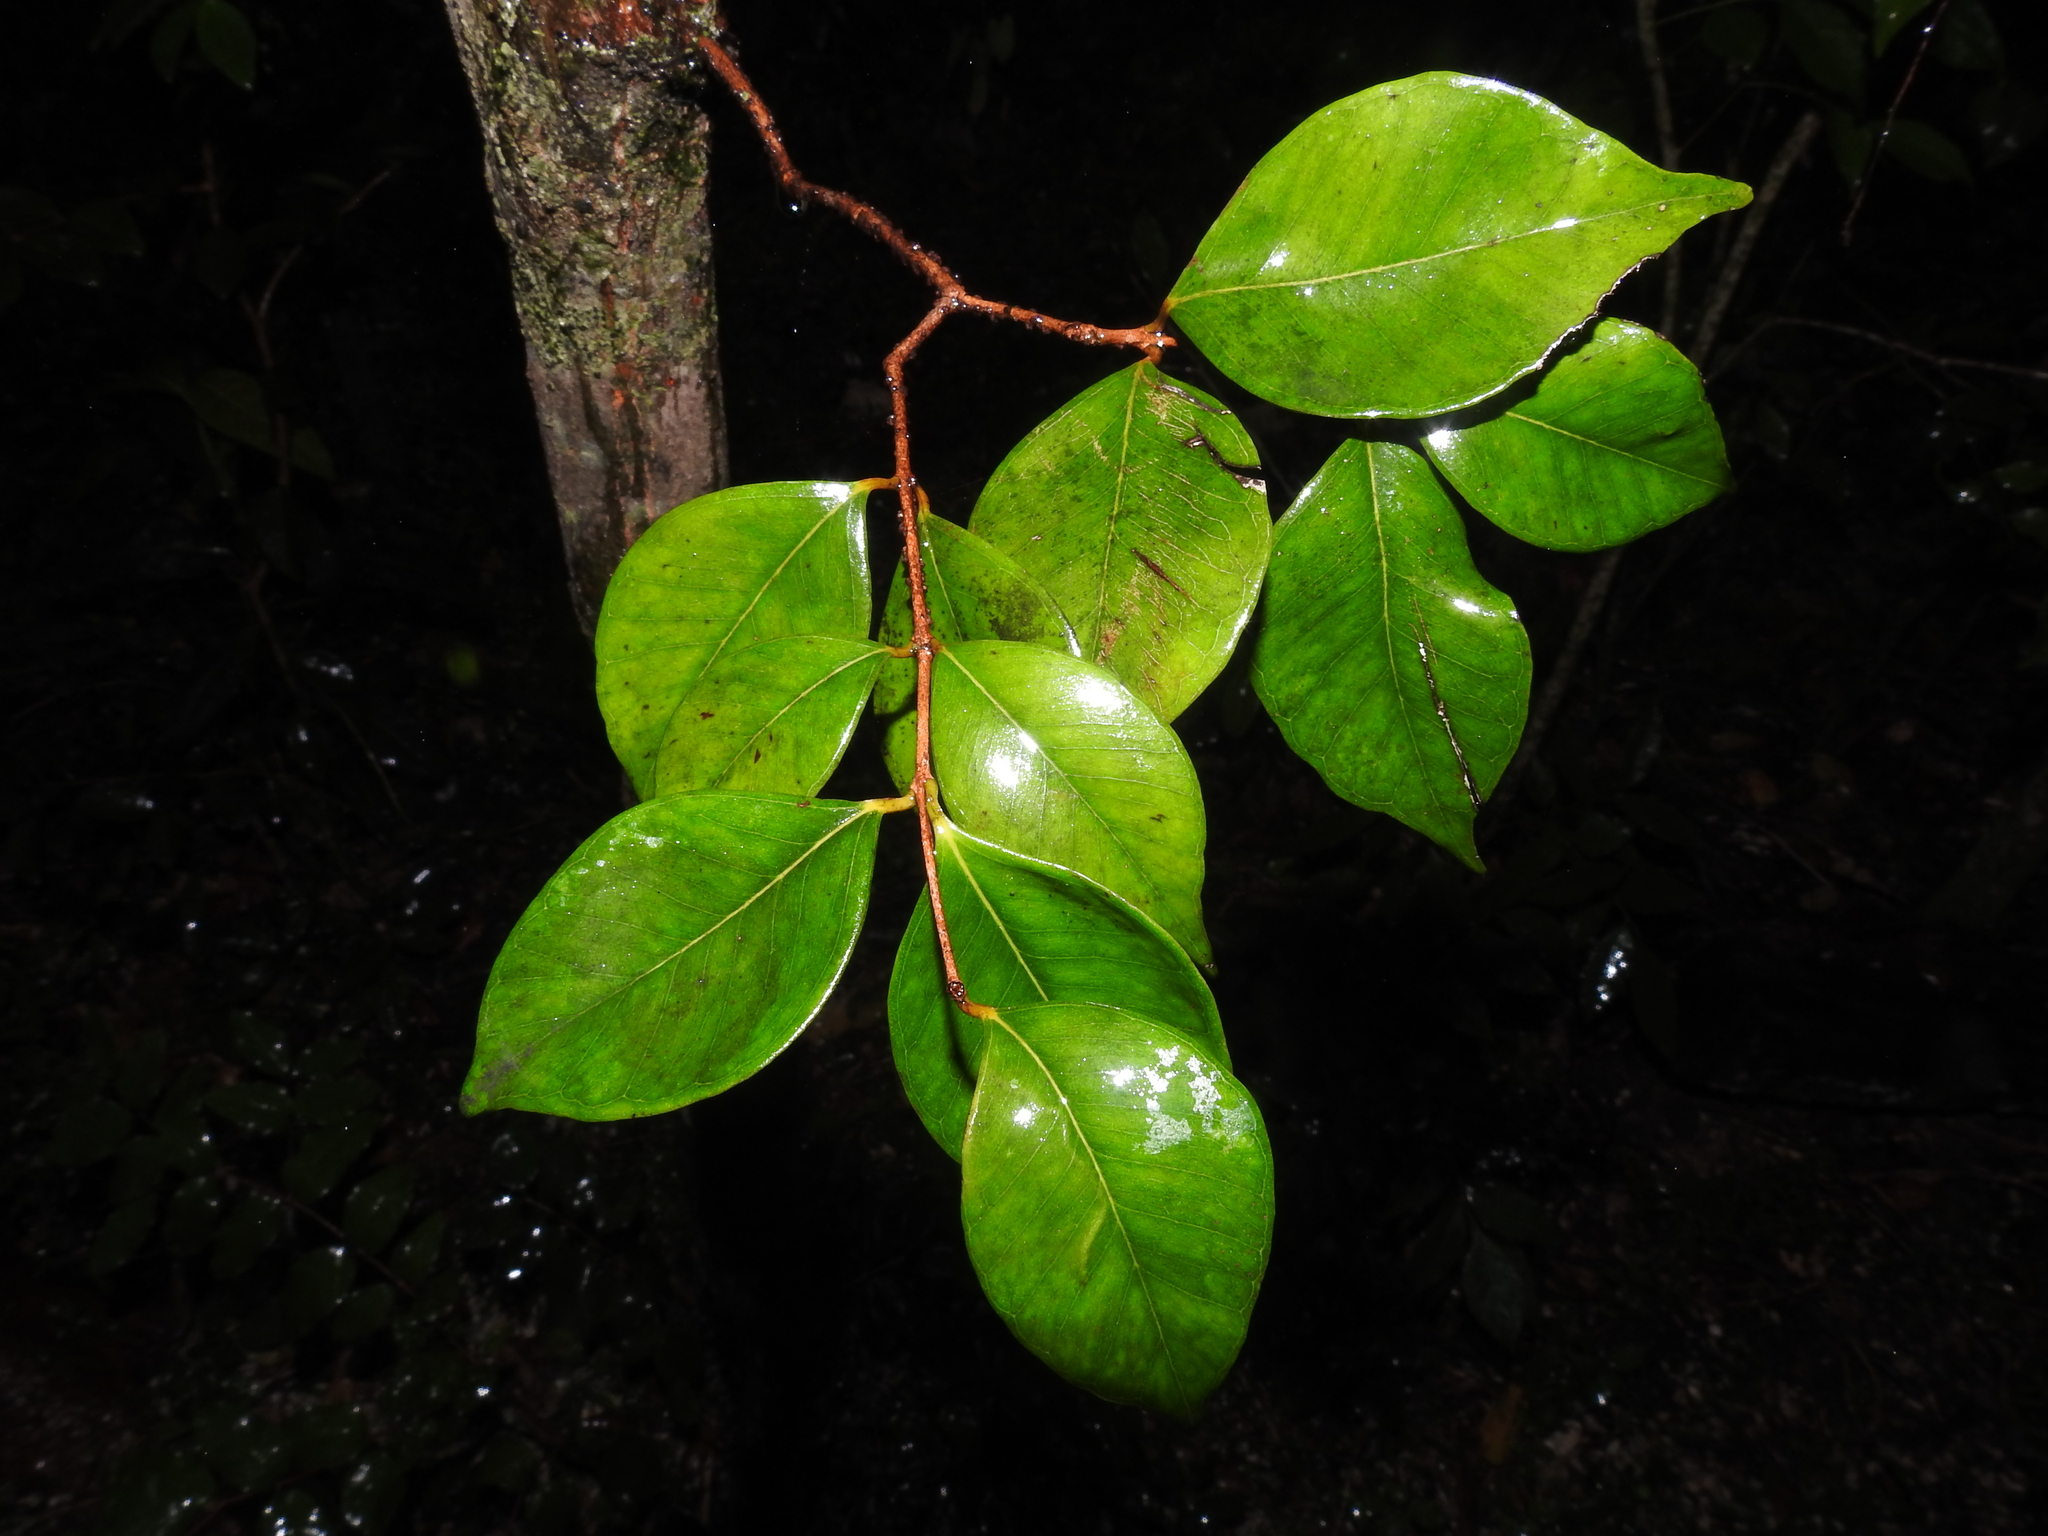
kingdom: Plantae
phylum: Tracheophyta
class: Magnoliopsida
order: Myrtales
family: Myrtaceae
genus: Eugenia
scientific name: Eugenia confusa
